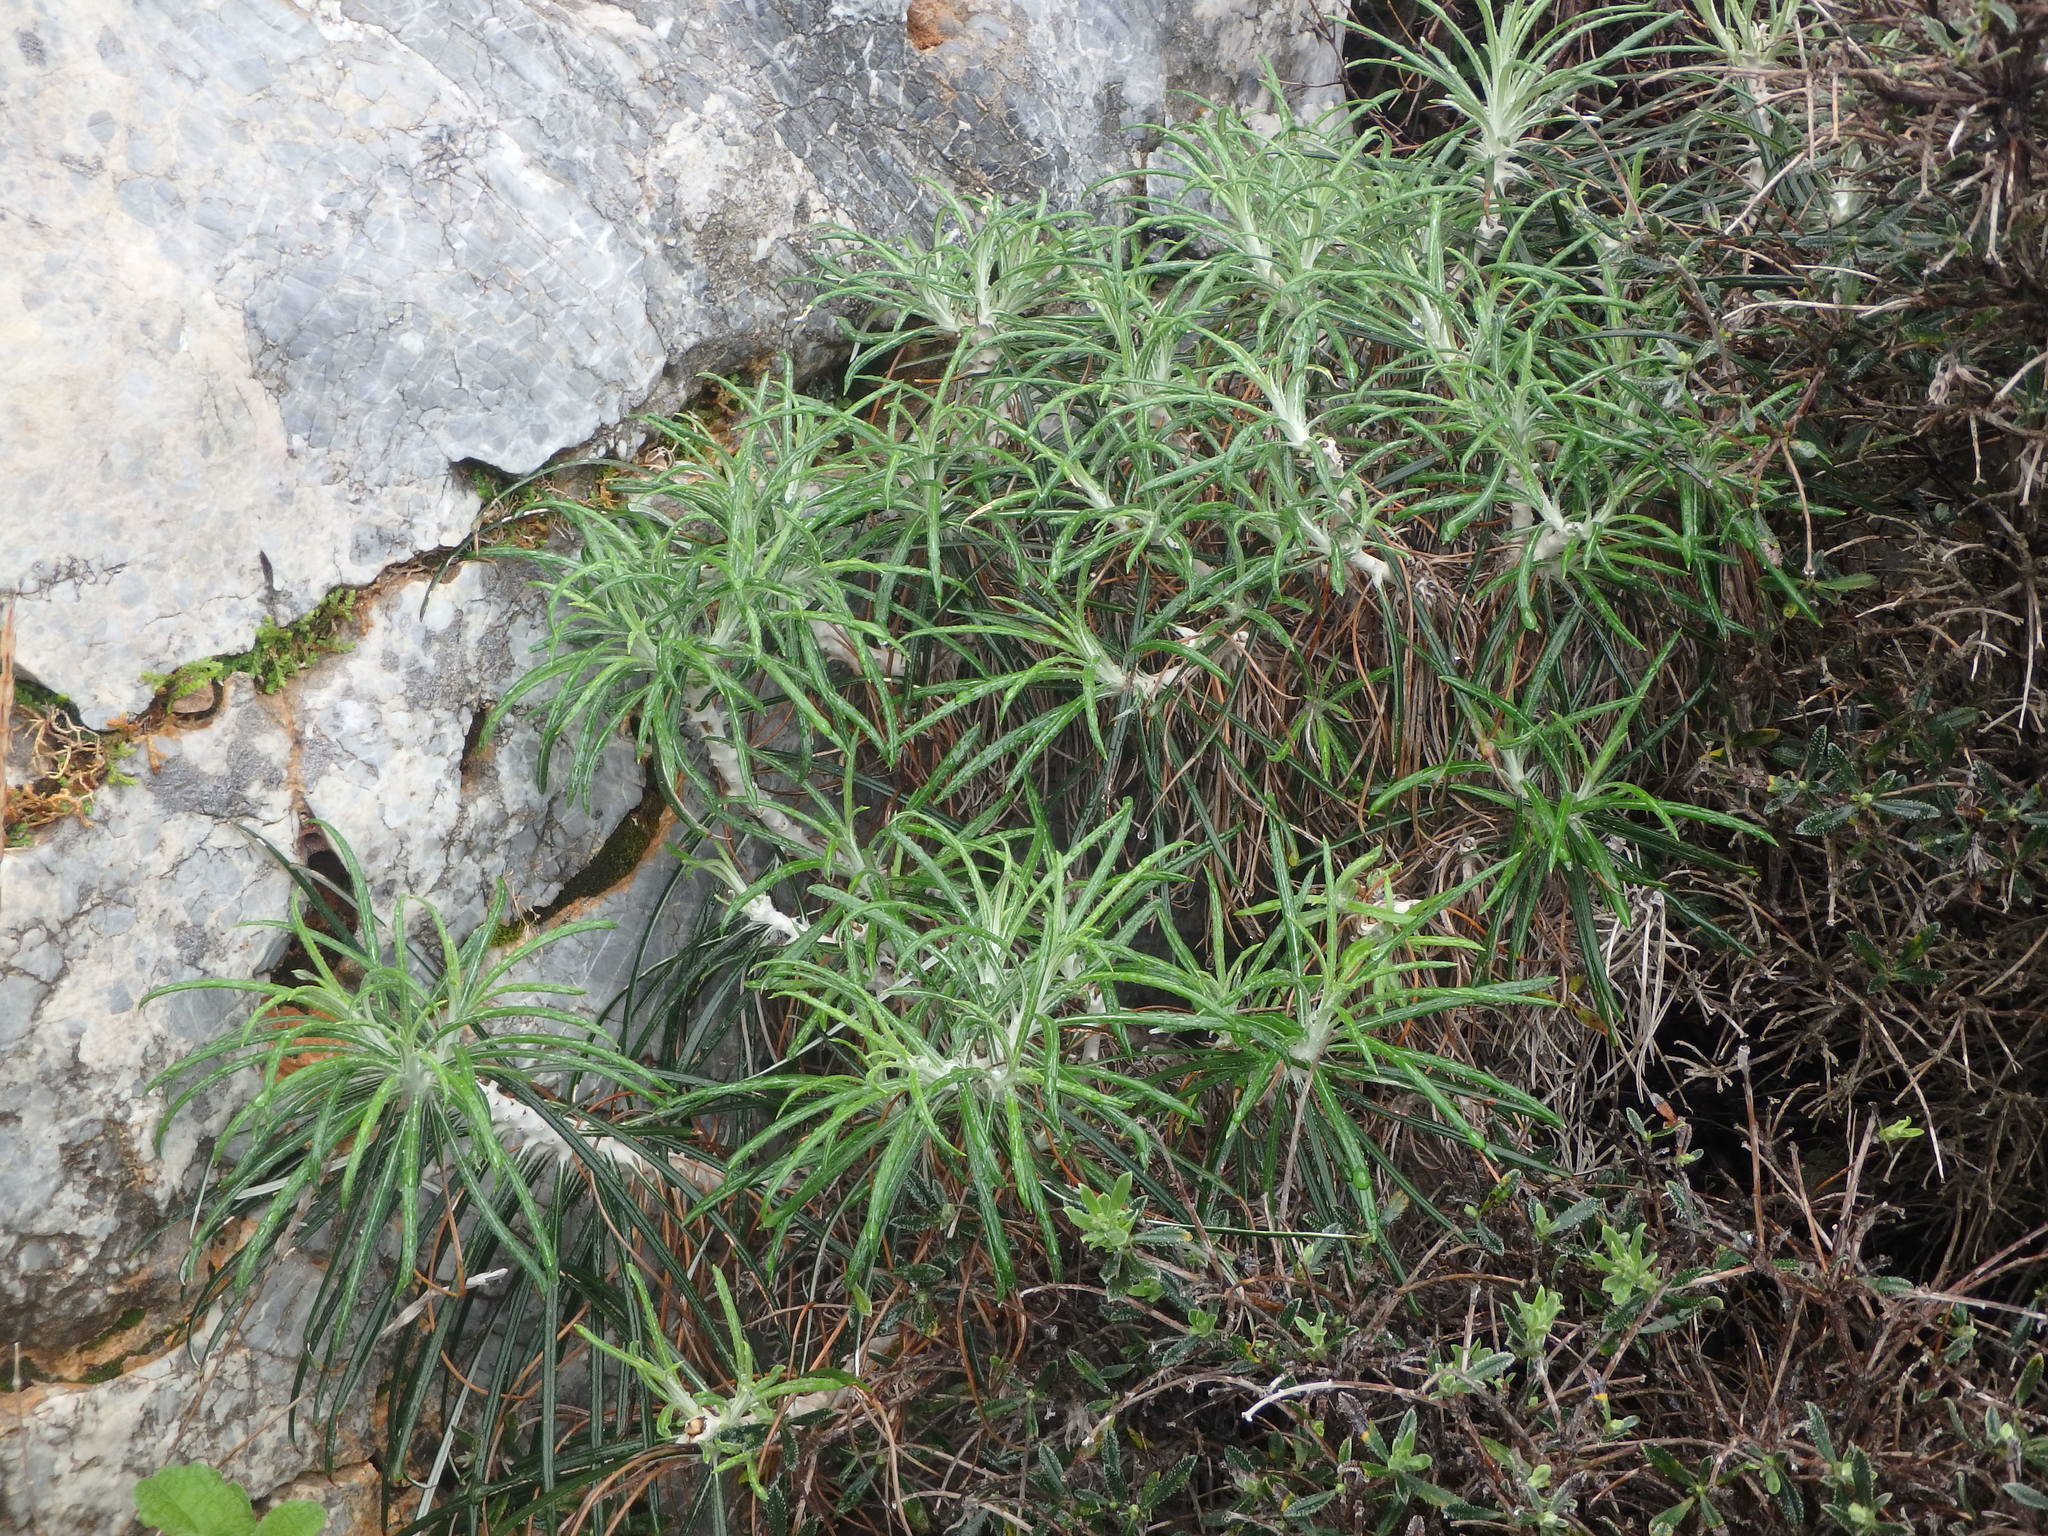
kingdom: Plantae
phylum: Tracheophyta
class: Magnoliopsida
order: Asterales
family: Asteraceae
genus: Ptilostemon
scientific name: Ptilostemon chamaepeuce
